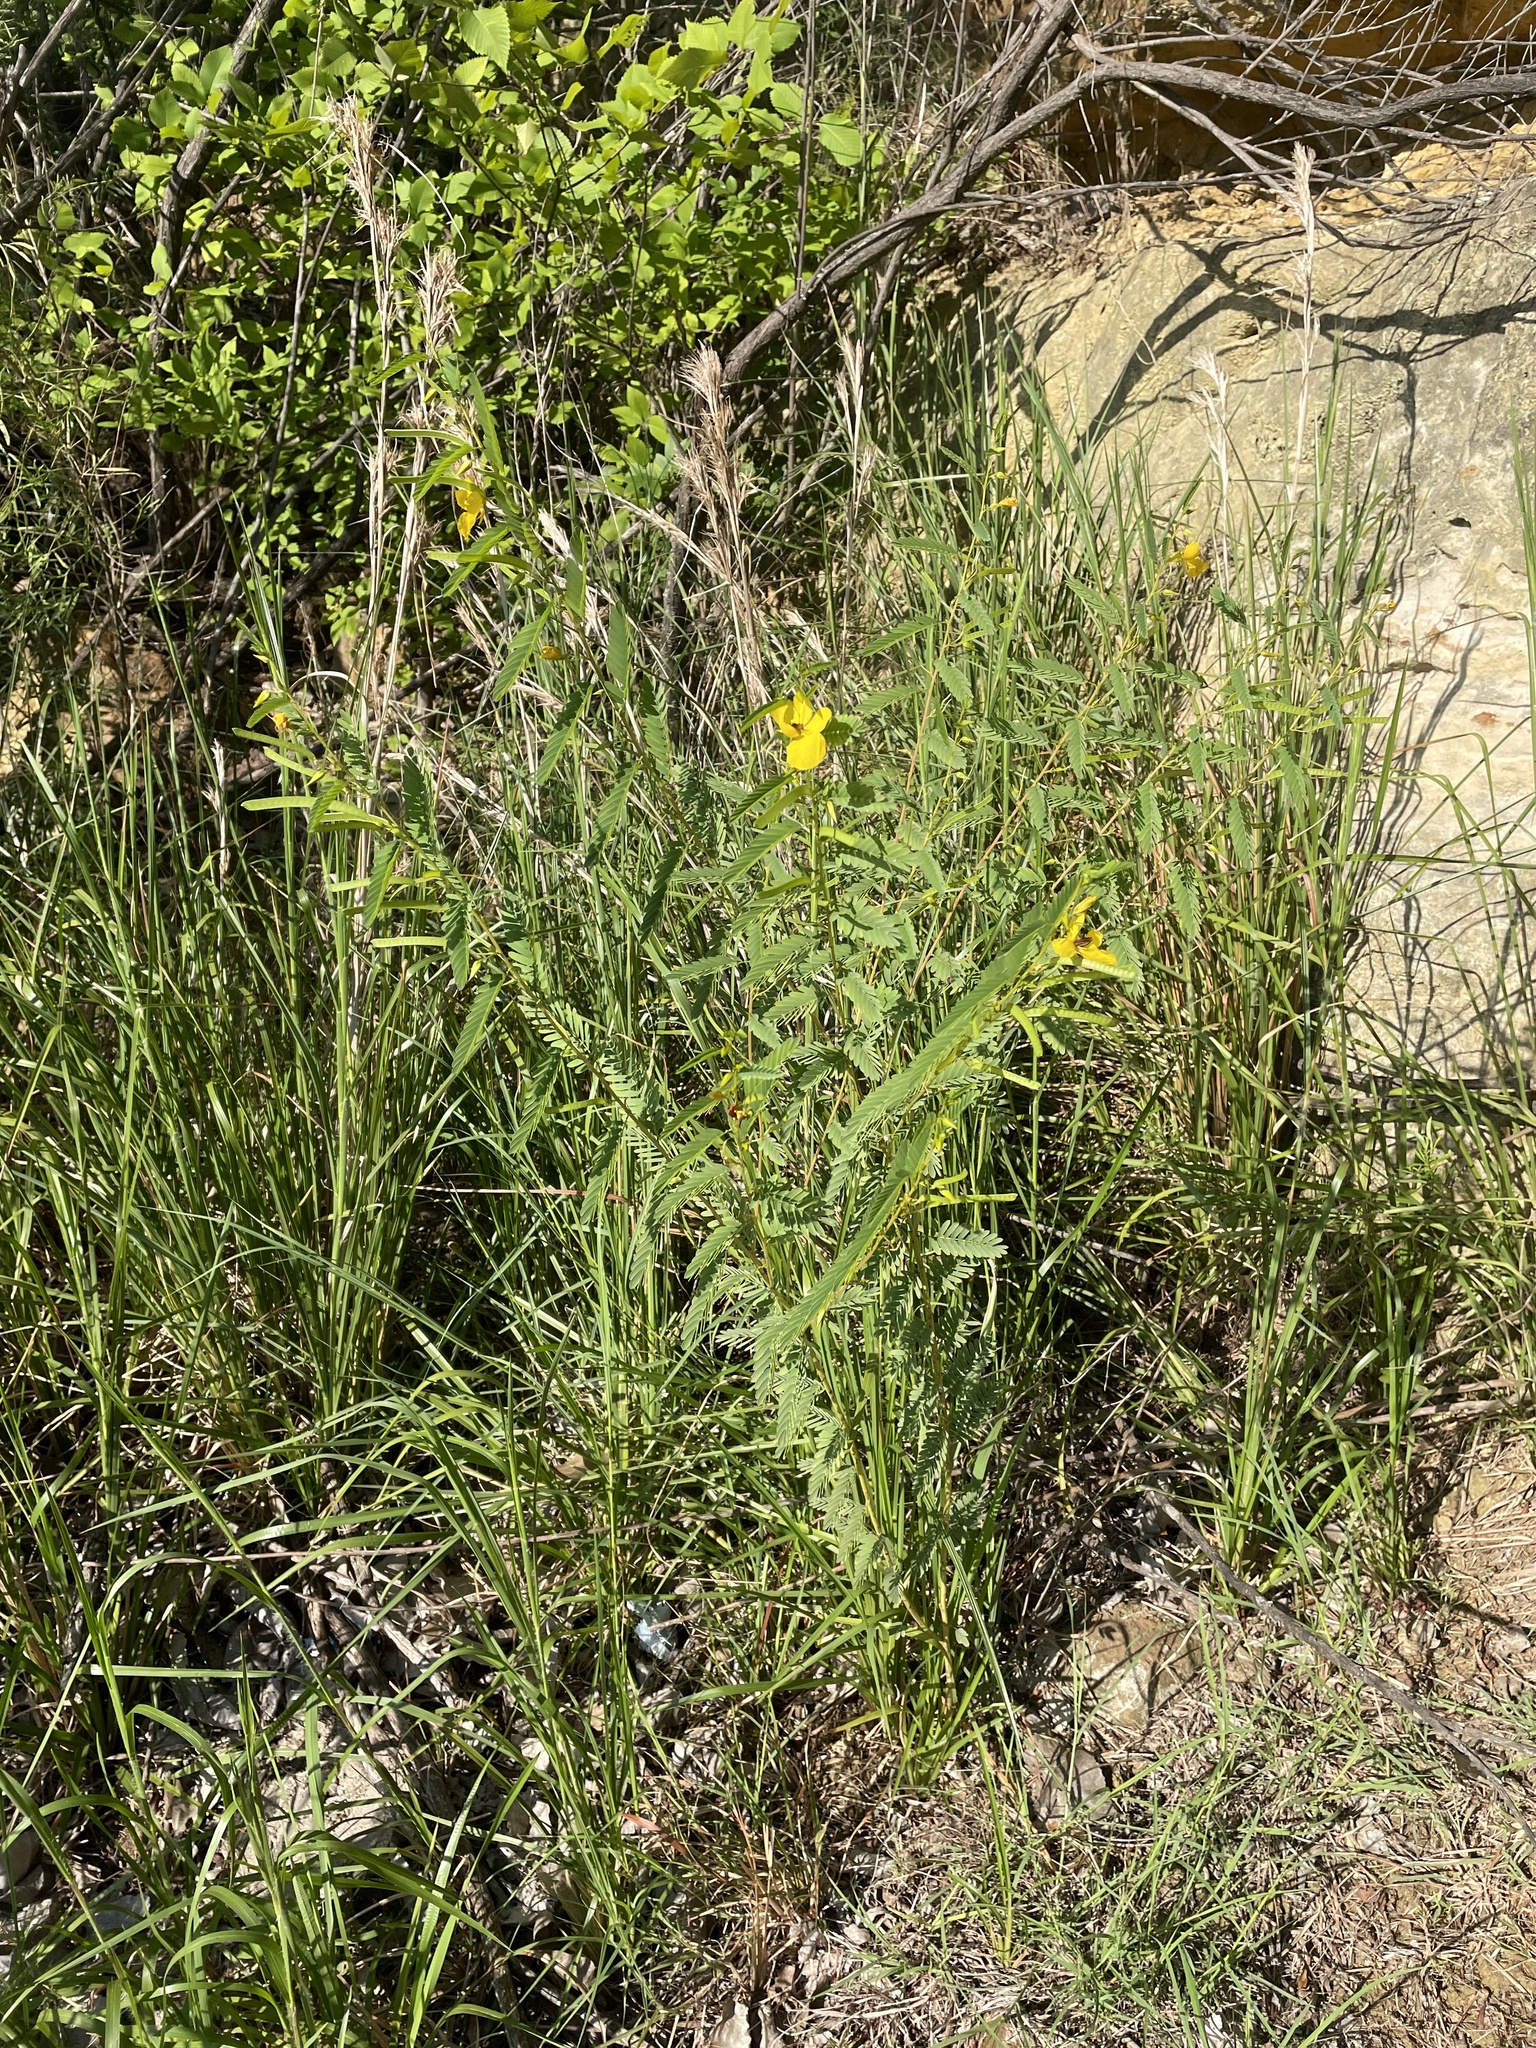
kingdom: Plantae
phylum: Tracheophyta
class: Magnoliopsida
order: Fabales
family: Fabaceae
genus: Chamaecrista
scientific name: Chamaecrista fasciculata
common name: Golden cassia
